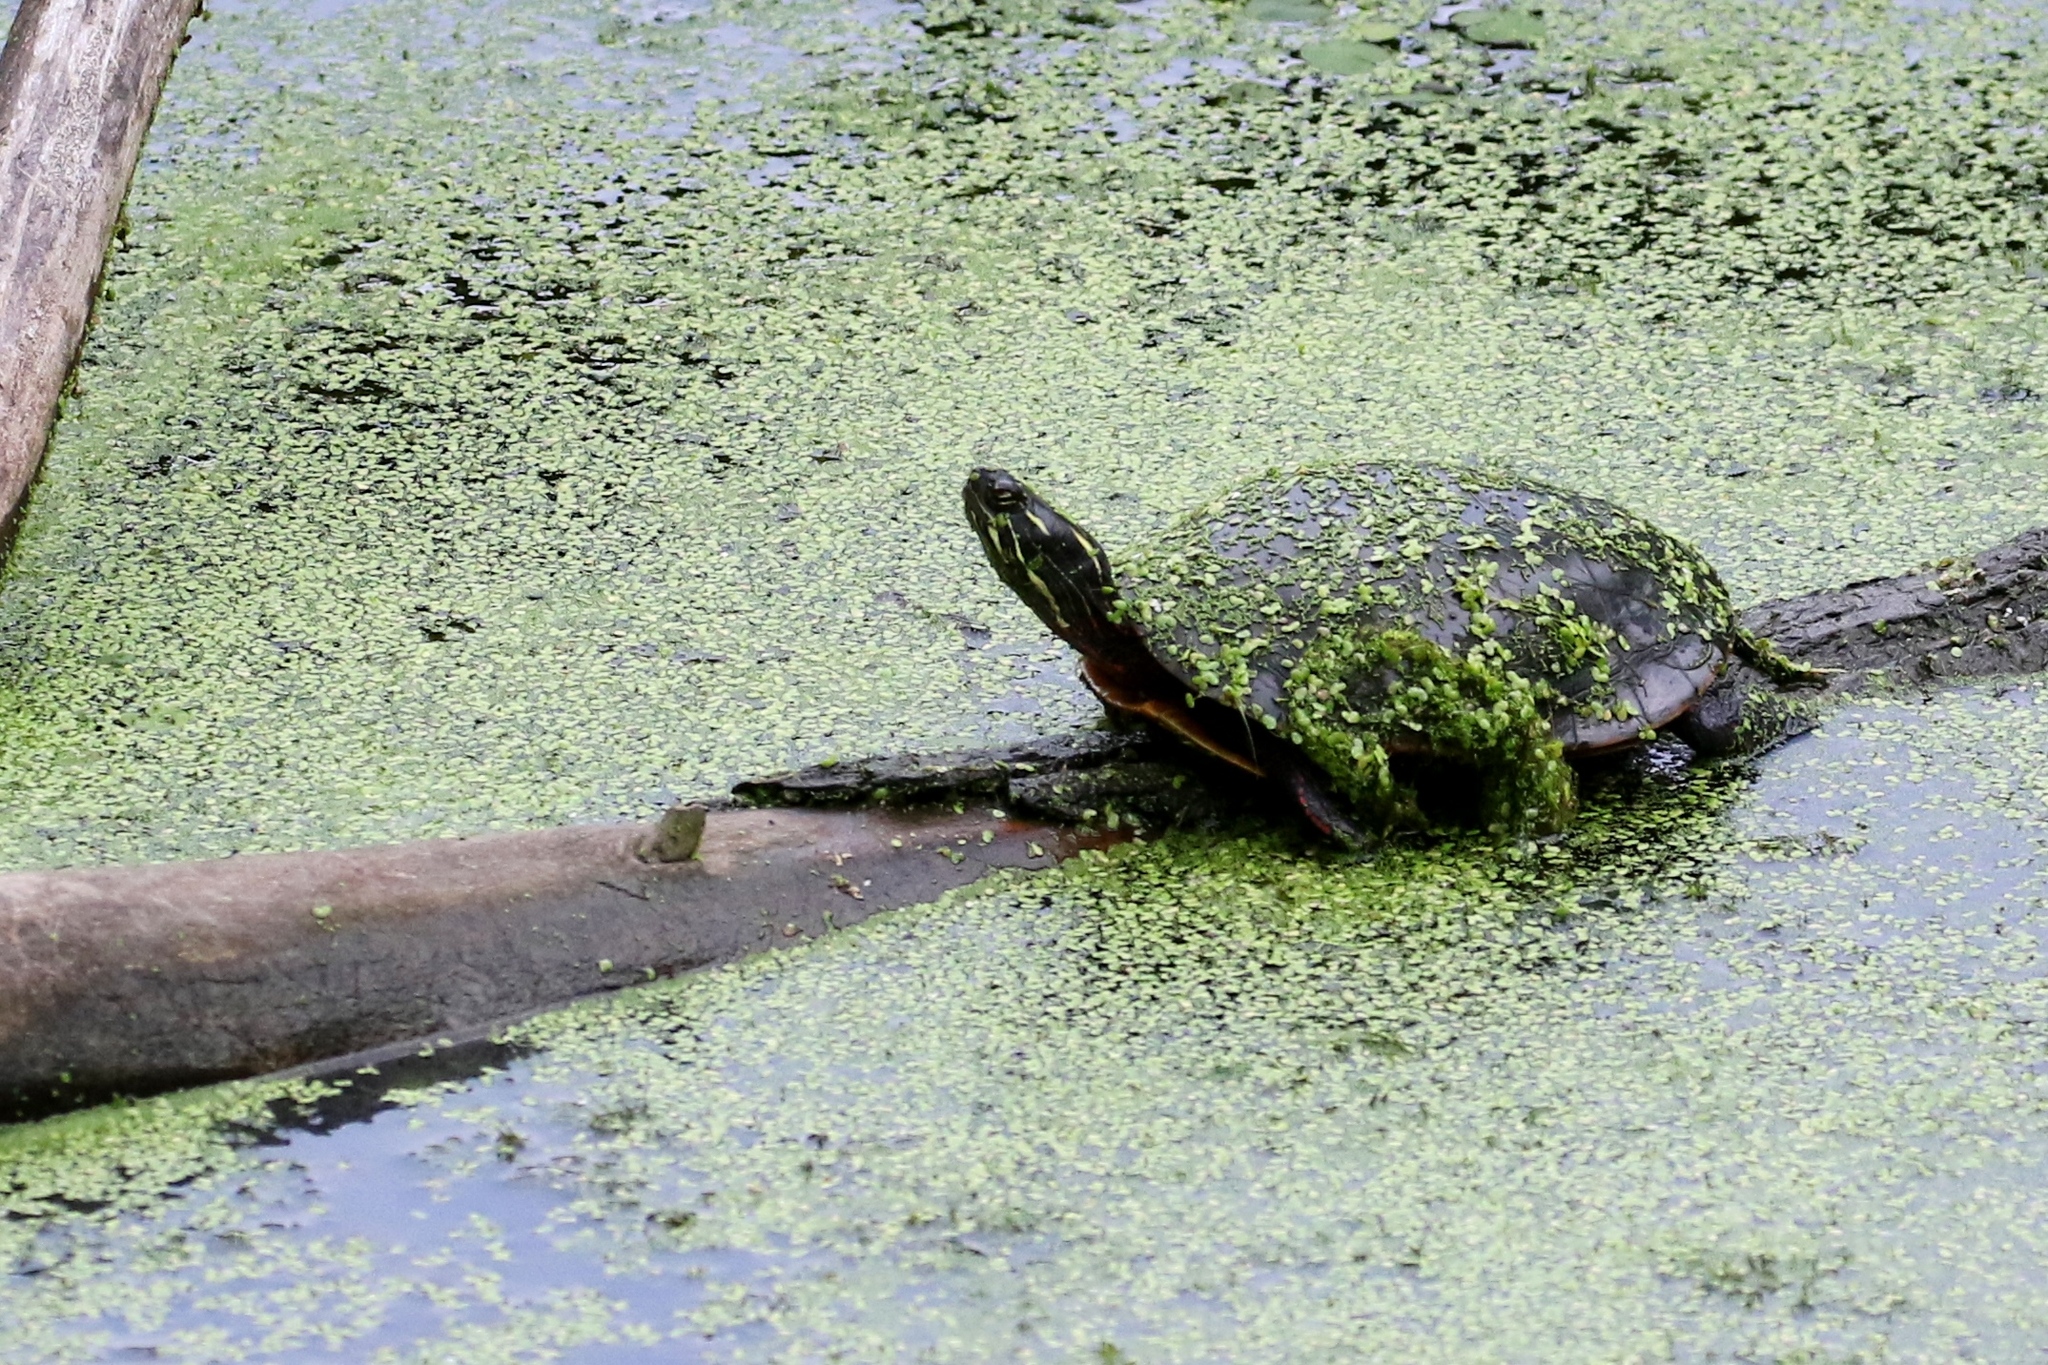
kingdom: Animalia
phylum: Chordata
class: Testudines
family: Emydidae
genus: Chrysemys
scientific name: Chrysemys picta
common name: Painted turtle
